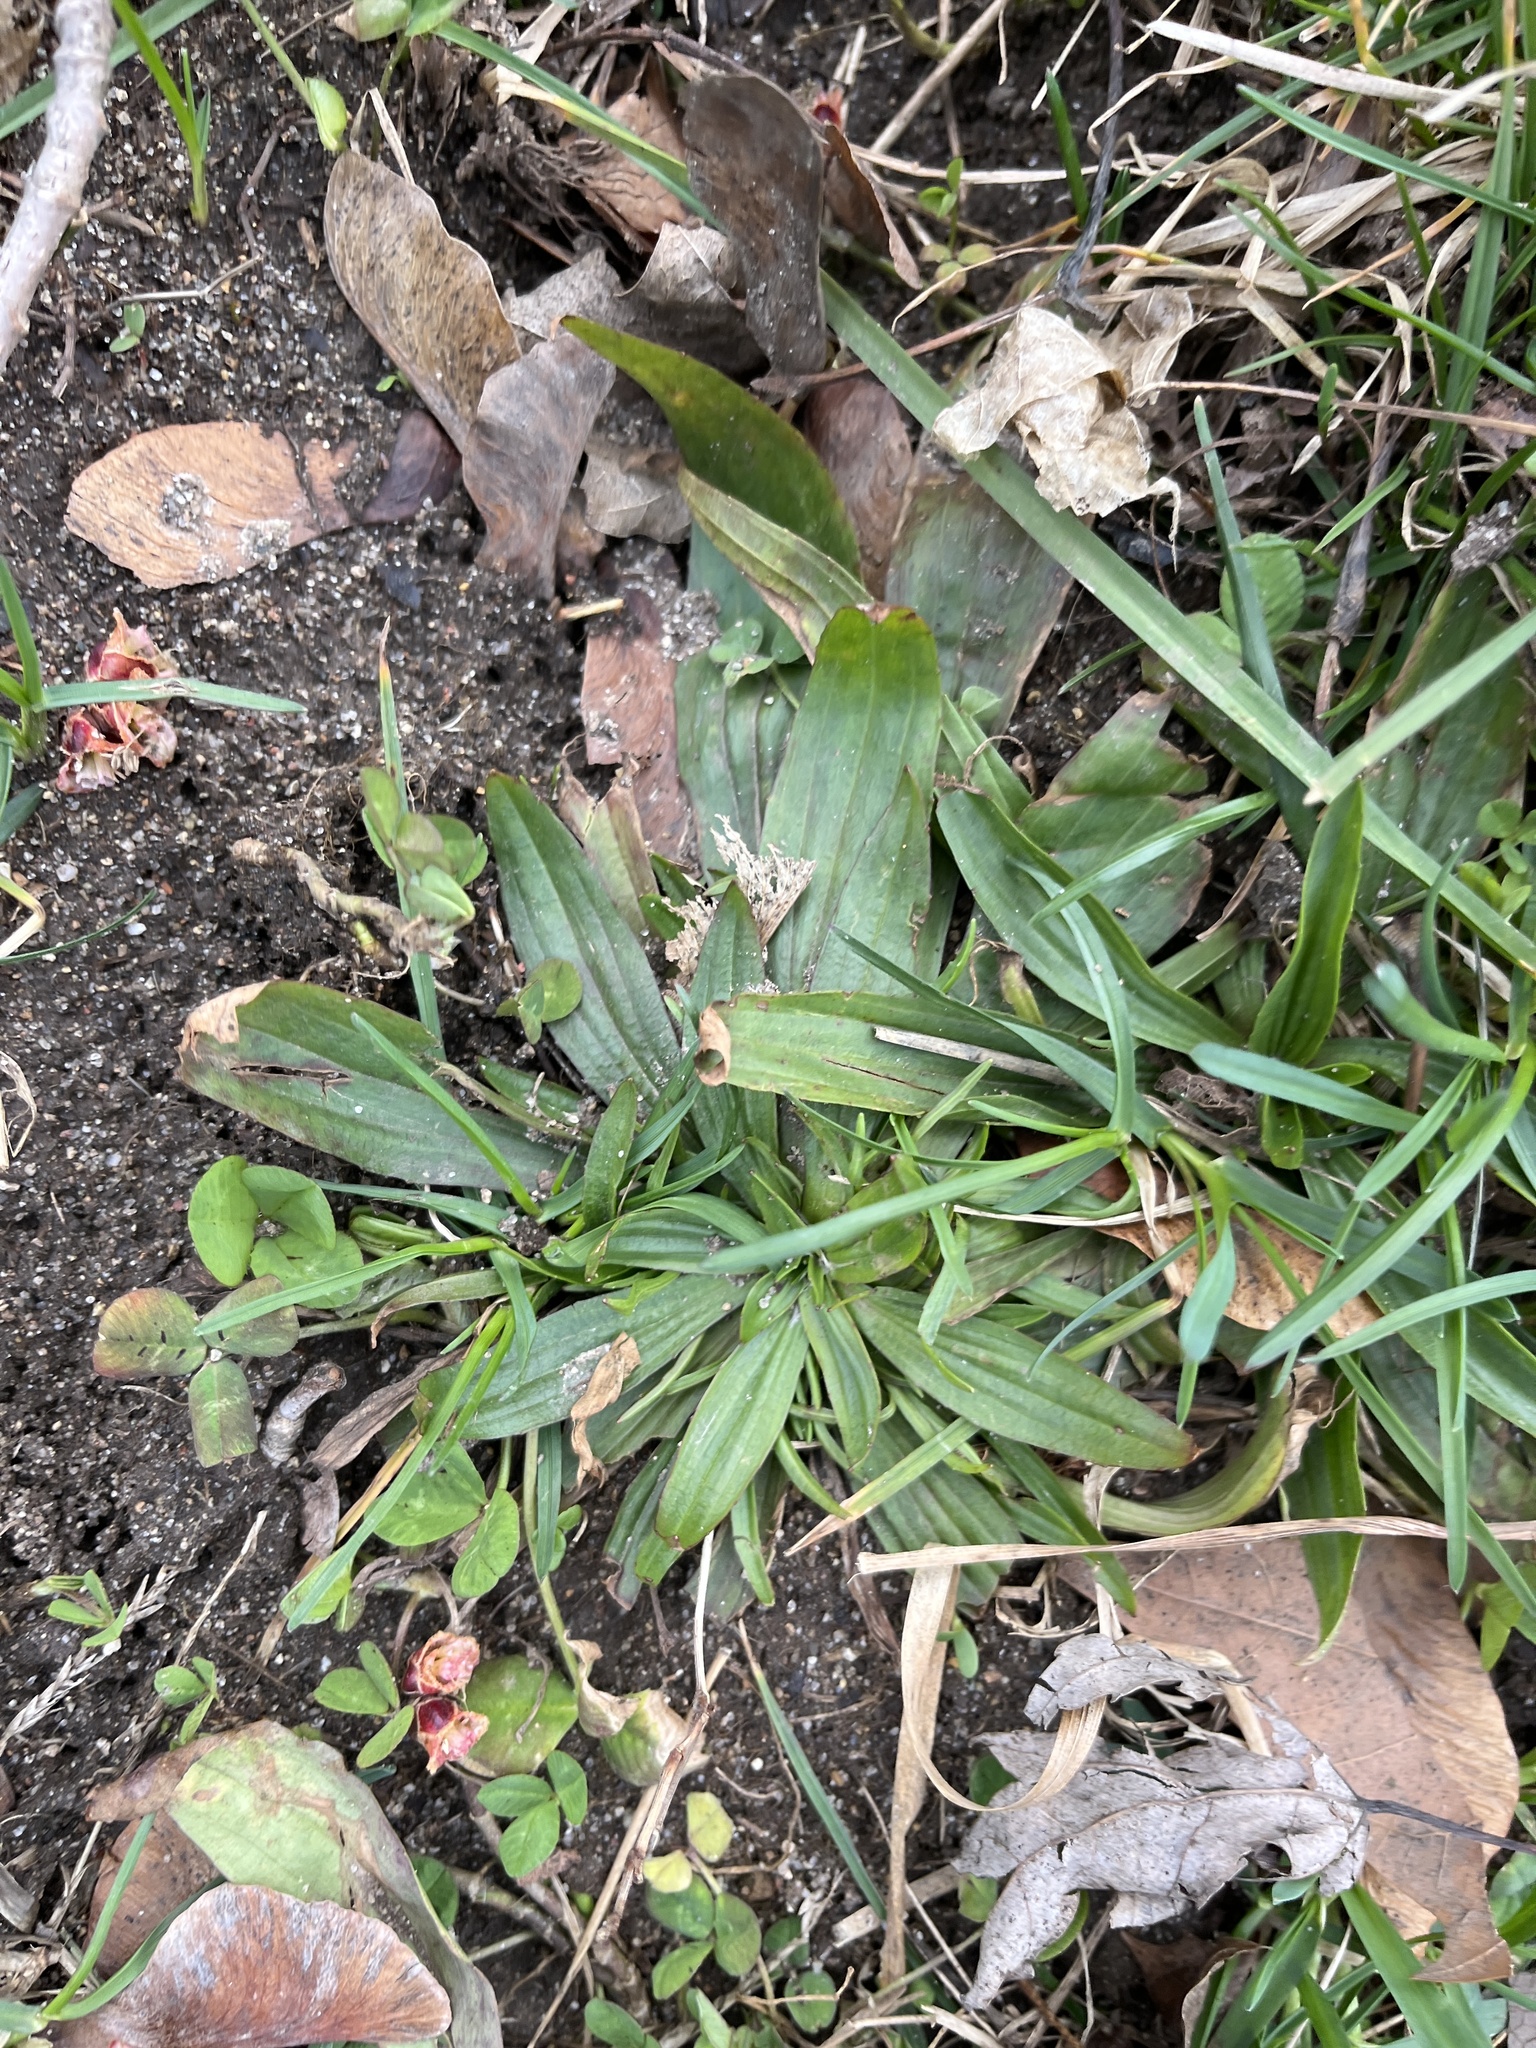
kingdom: Plantae
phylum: Tracheophyta
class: Magnoliopsida
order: Lamiales
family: Plantaginaceae
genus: Plantago
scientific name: Plantago lanceolata
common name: Ribwort plantain
